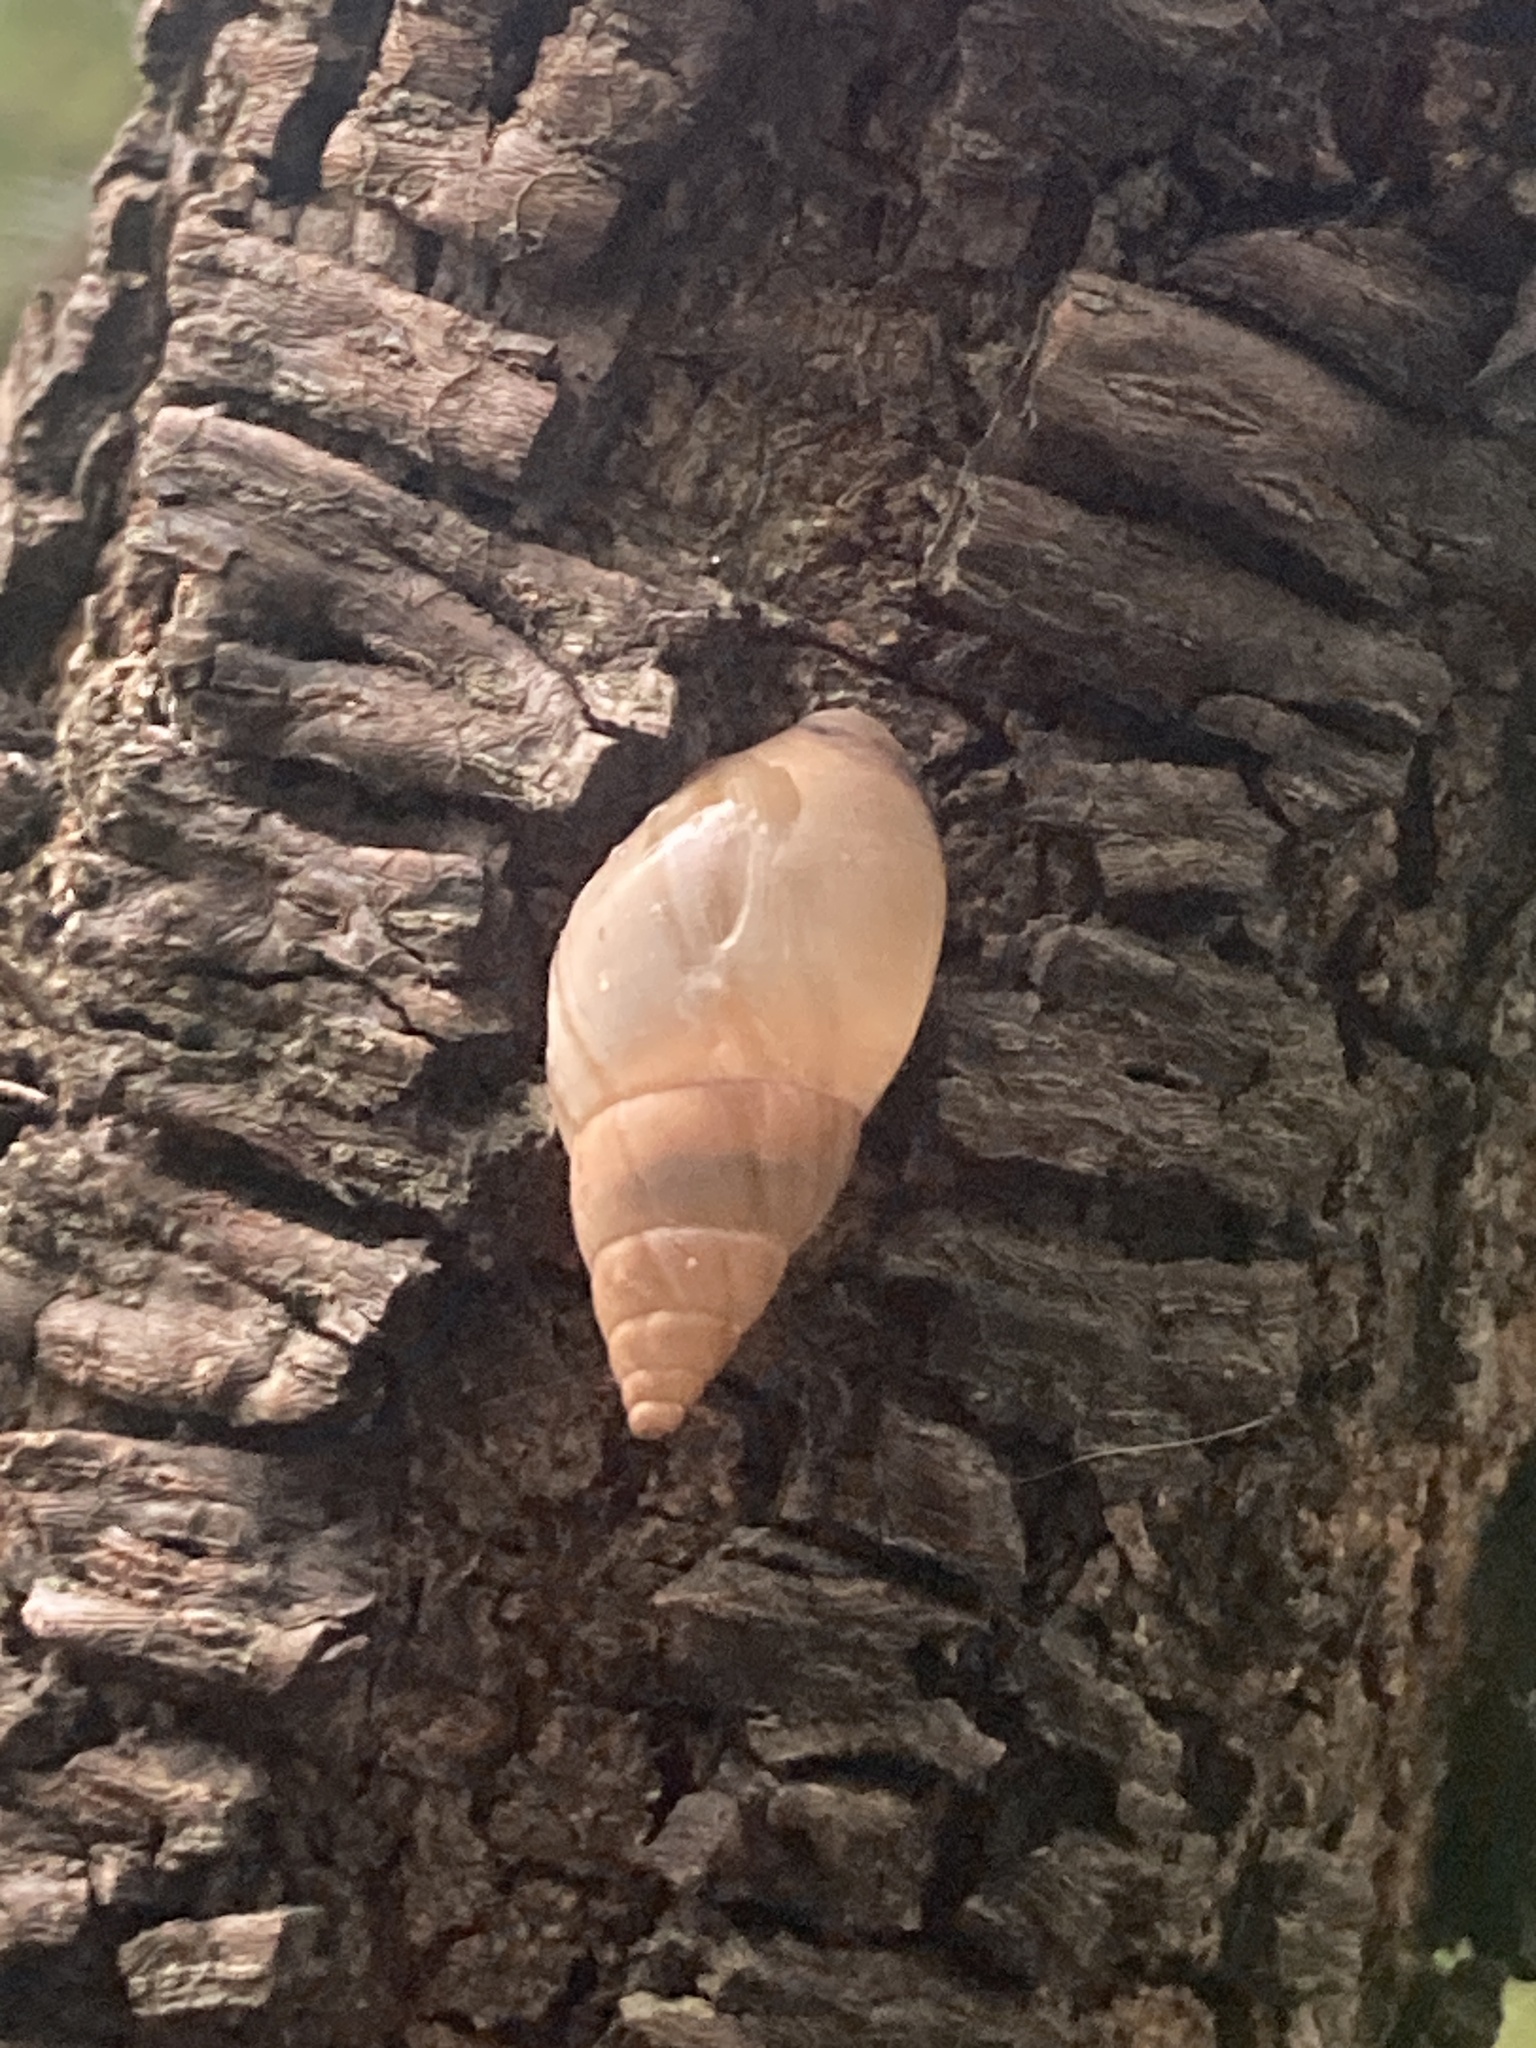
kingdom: Animalia
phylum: Mollusca
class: Gastropoda
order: Stylommatophora
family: Bulimulidae
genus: Bulimulus
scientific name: Bulimulus bonariensis
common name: Snail
